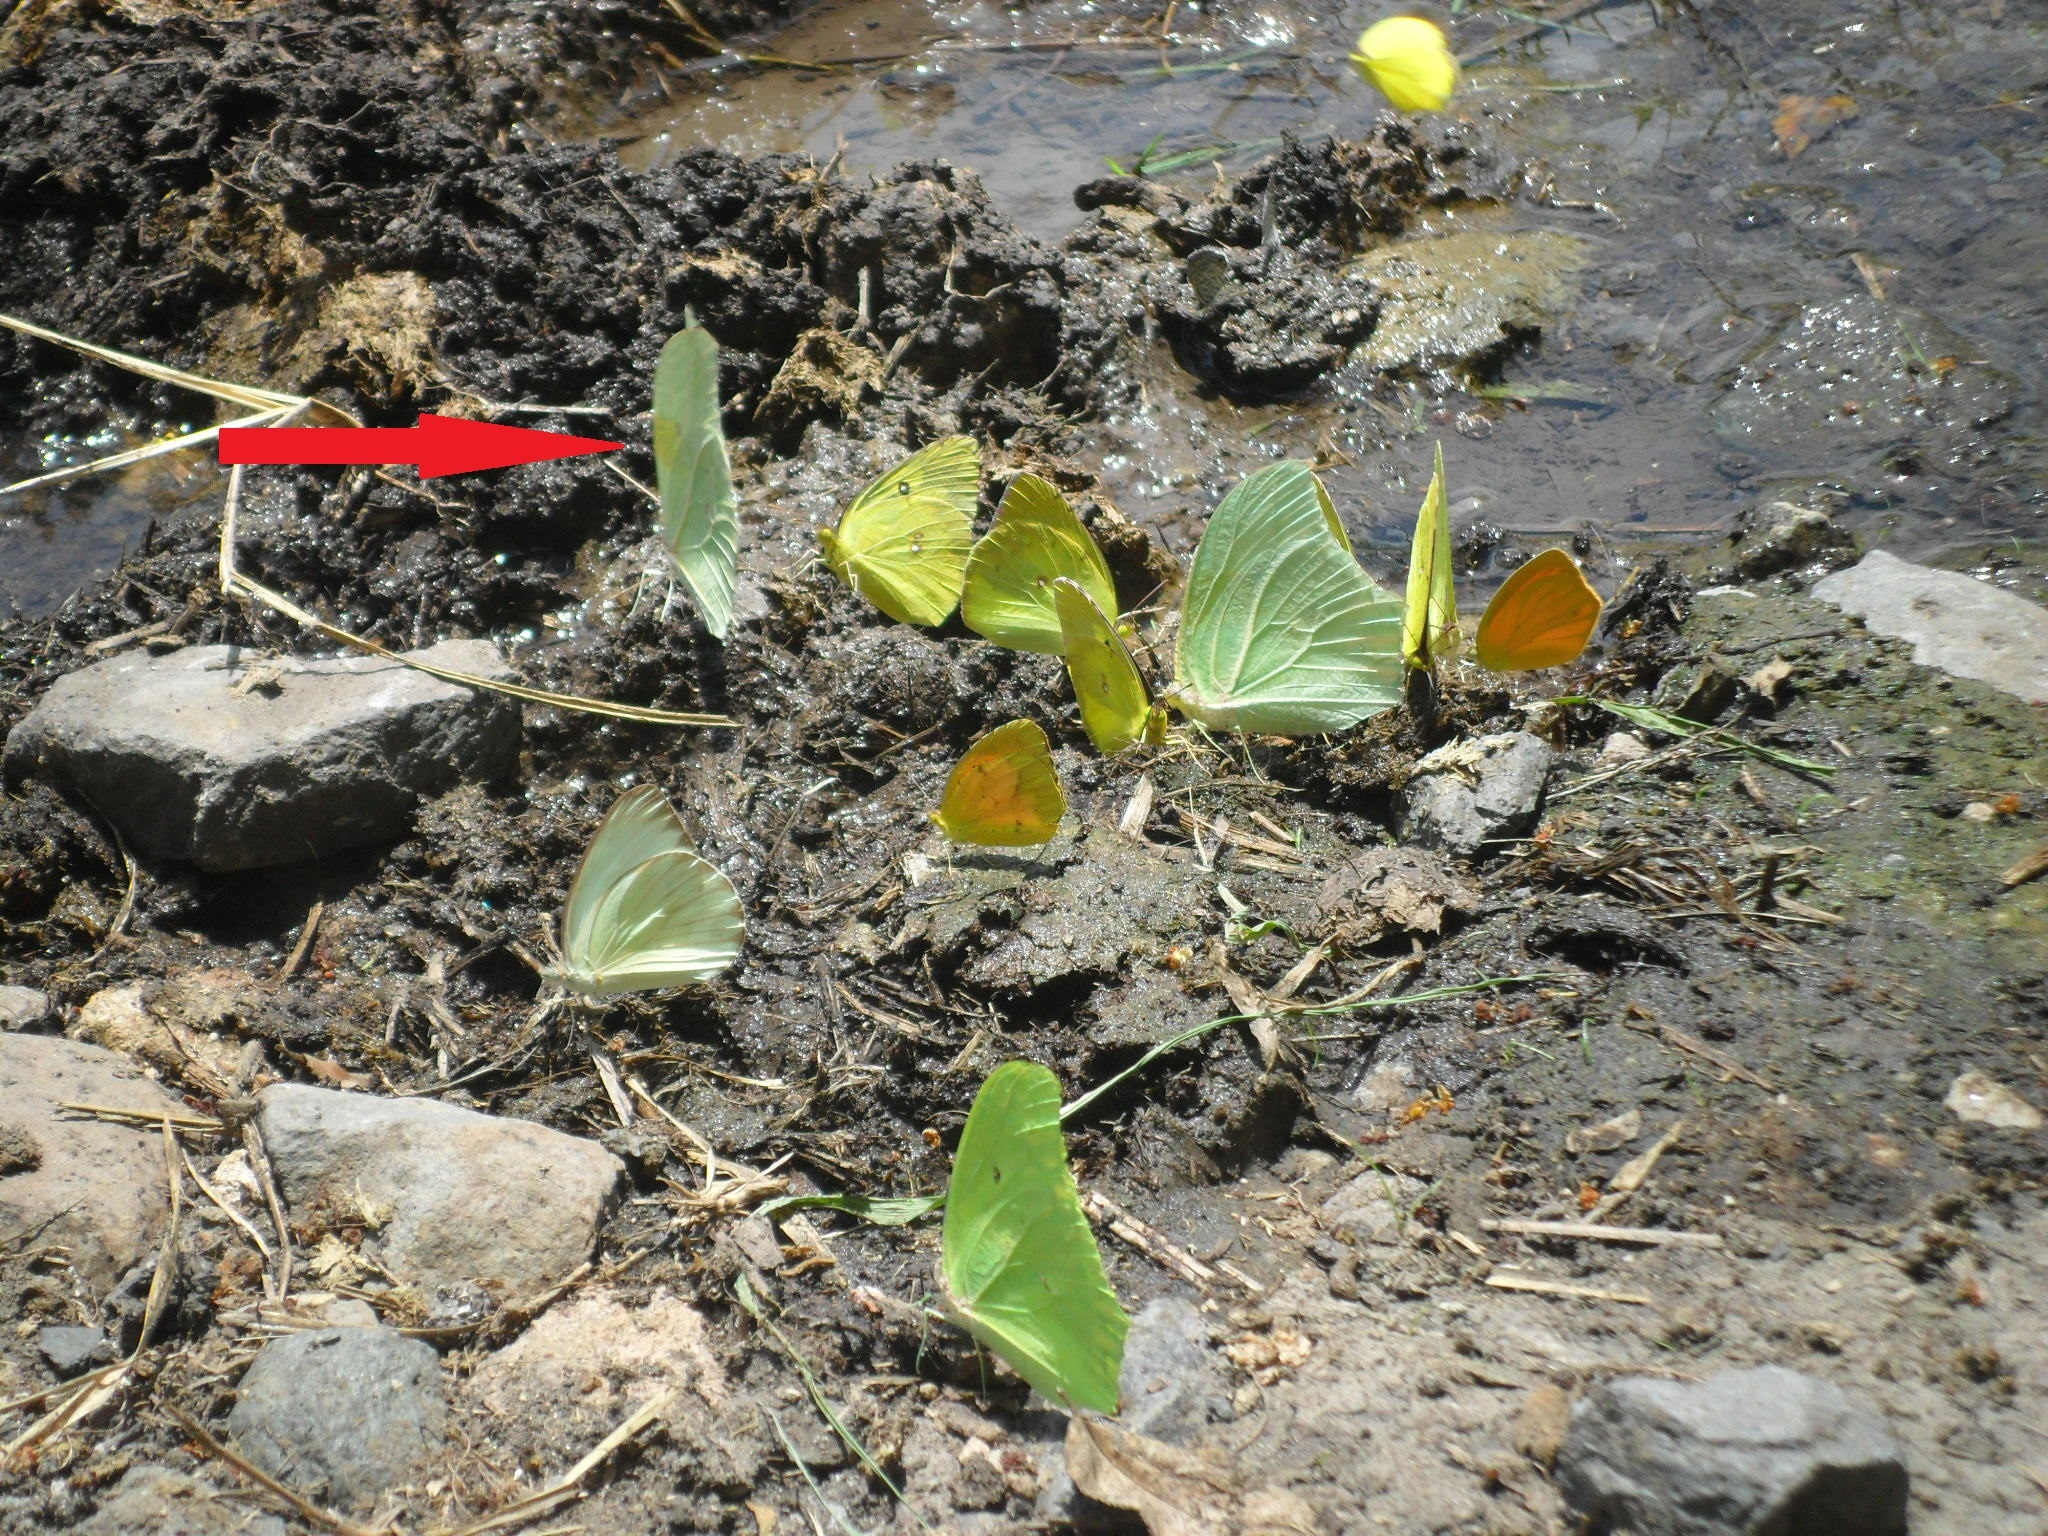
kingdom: Animalia
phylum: Arthropoda
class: Insecta
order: Lepidoptera
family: Pieridae
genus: Anteos
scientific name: Anteos clorinde
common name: White angled sulphur
